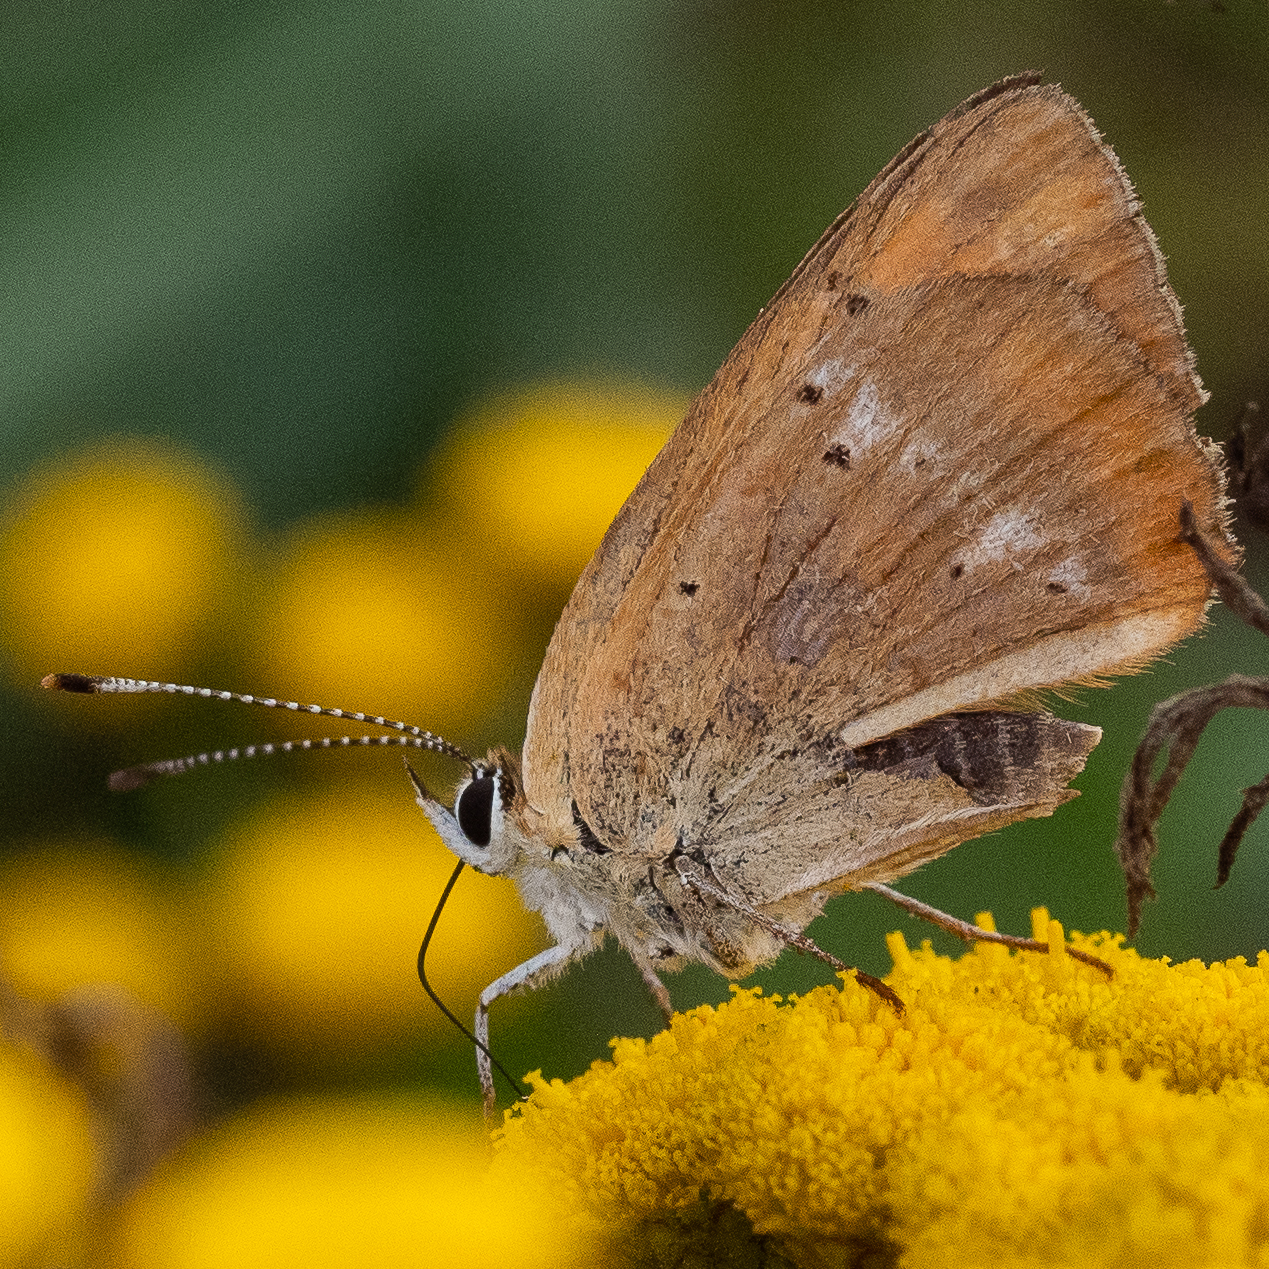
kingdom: Animalia
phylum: Arthropoda
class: Insecta
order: Lepidoptera
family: Lycaenidae
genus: Lycaena
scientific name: Lycaena virgaureae
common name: Scarce copper
